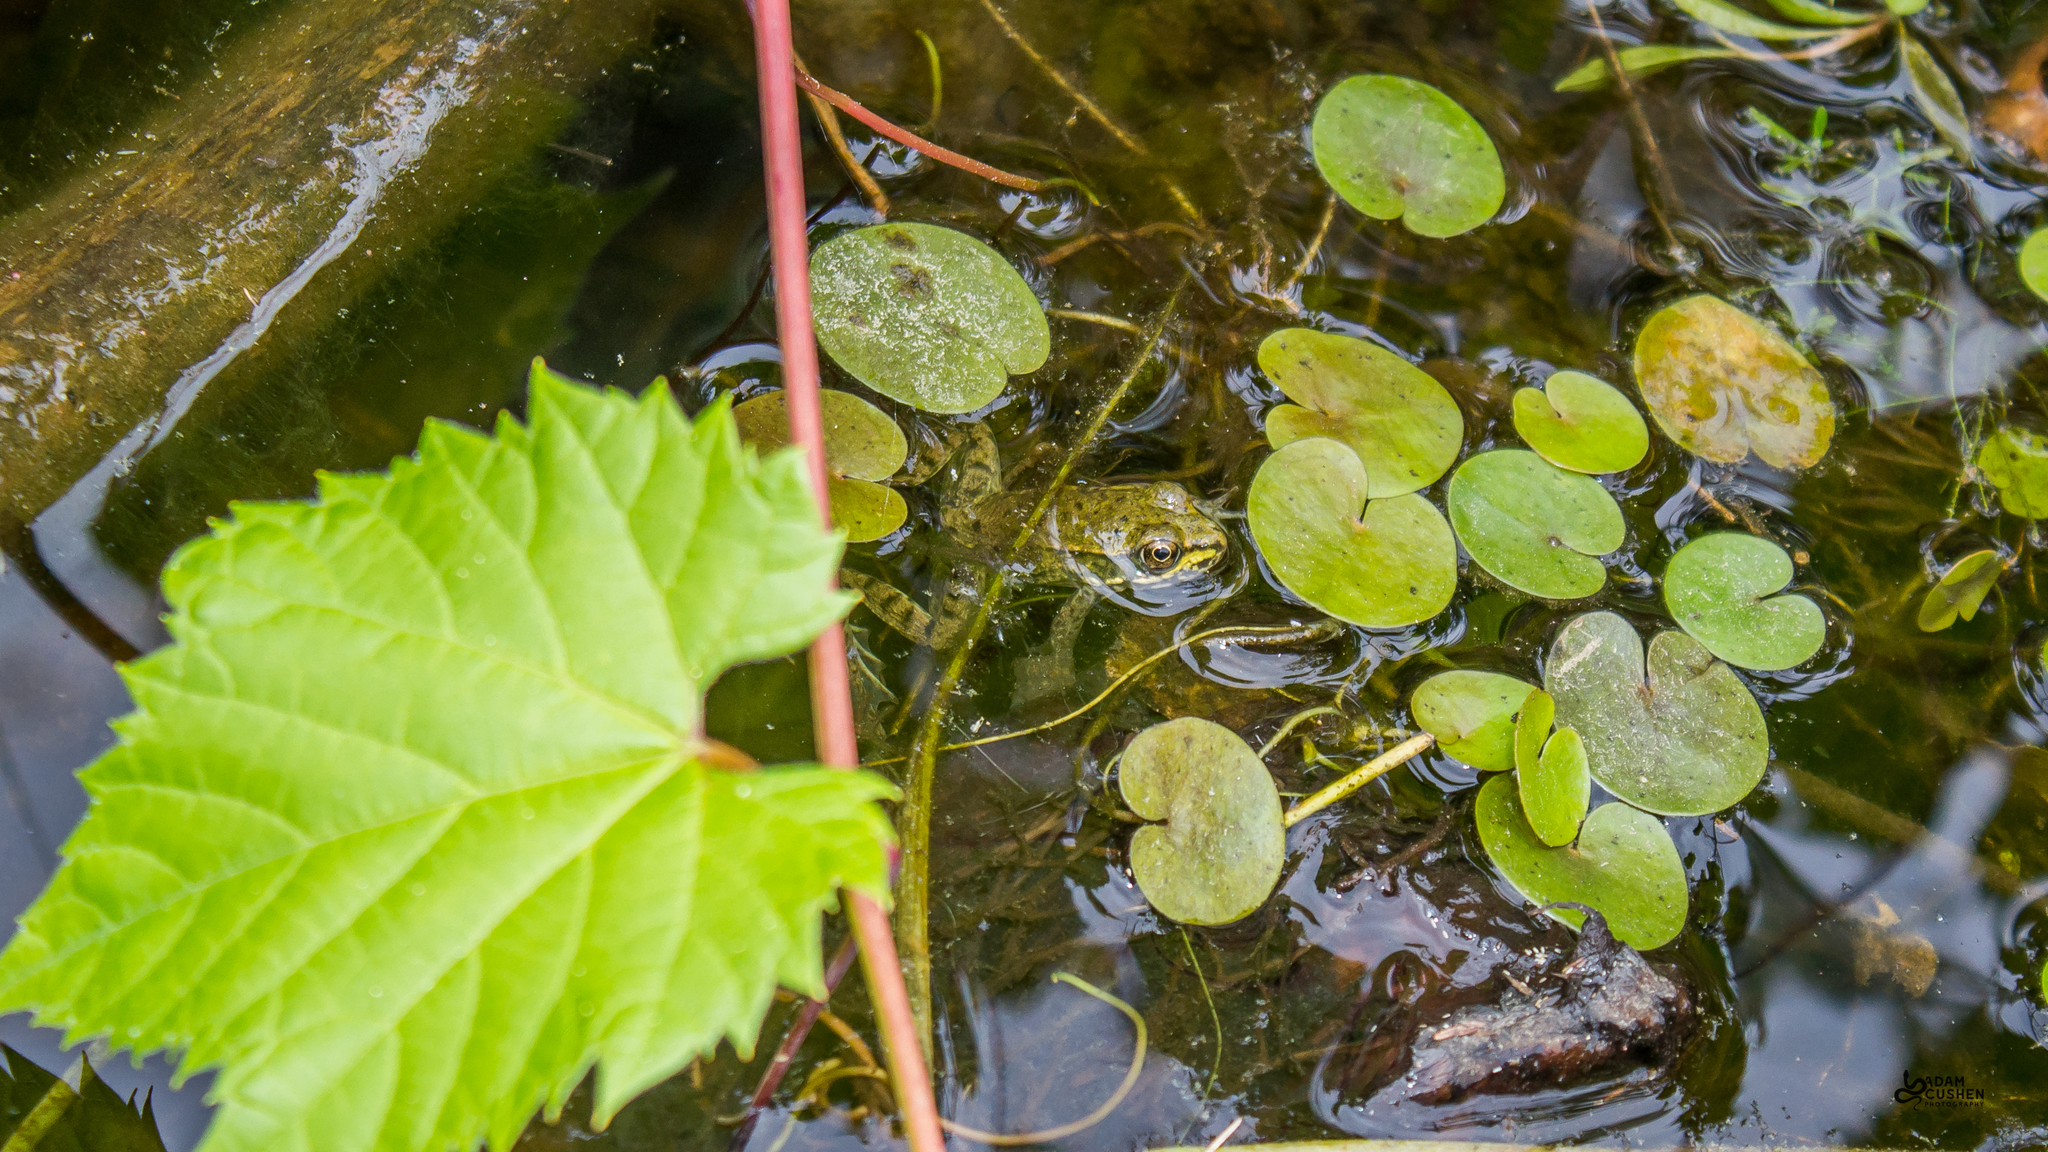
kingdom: Animalia
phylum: Chordata
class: Amphibia
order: Anura
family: Ranidae
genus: Lithobates
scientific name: Lithobates clamitans
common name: Green frog
